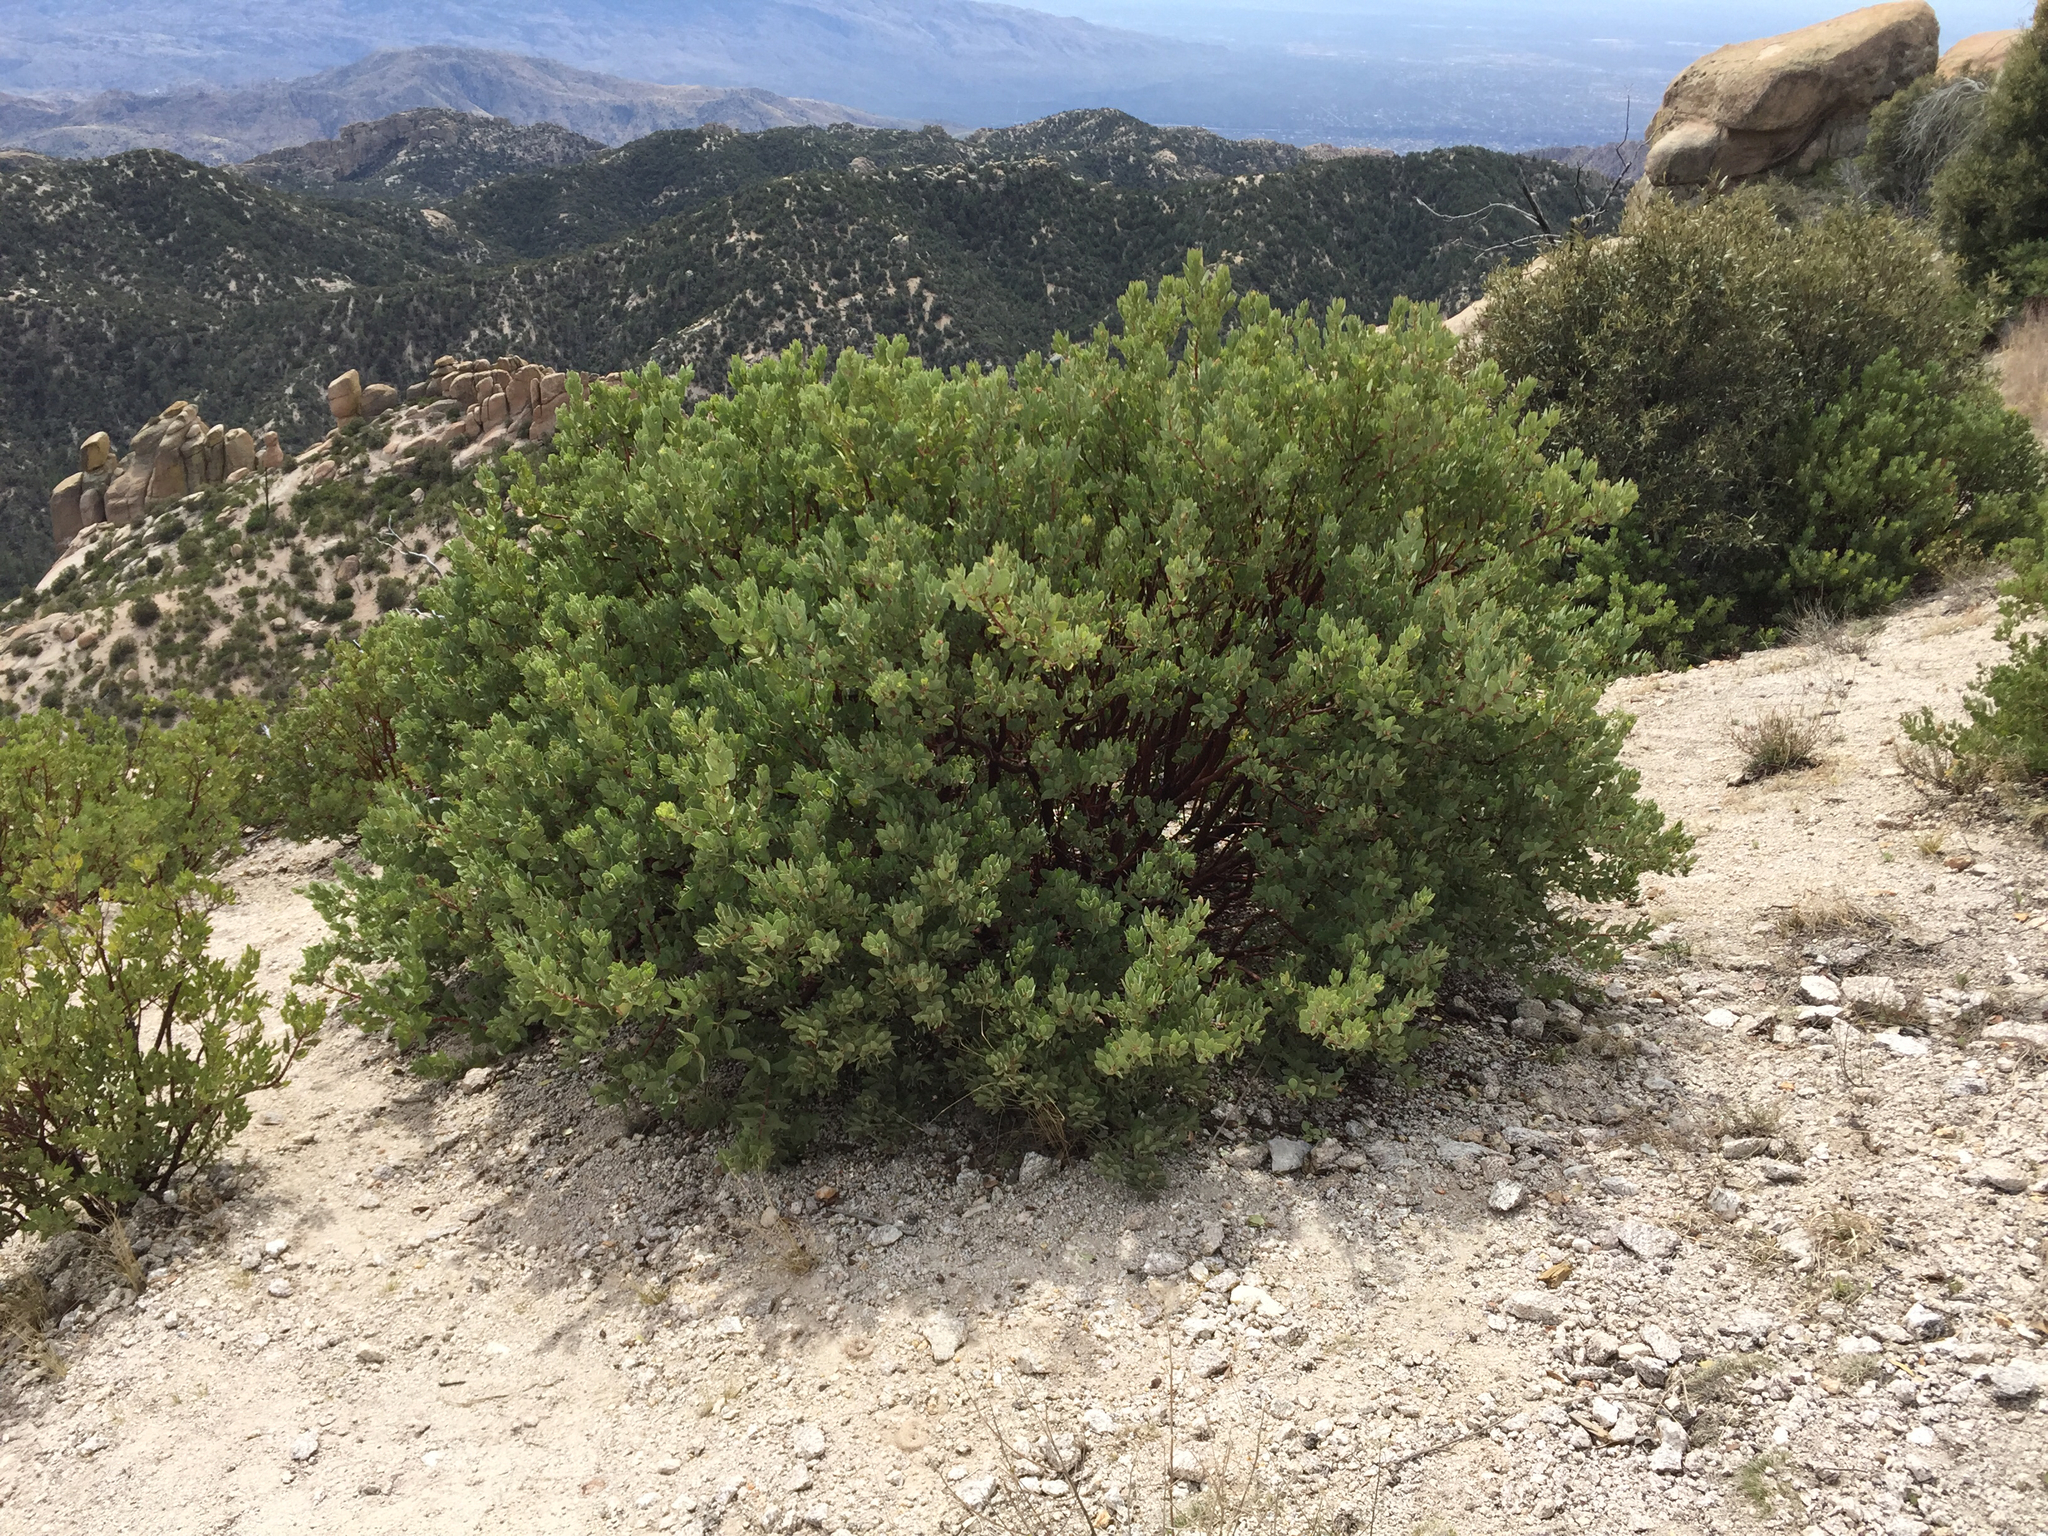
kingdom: Plantae
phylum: Tracheophyta
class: Magnoliopsida
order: Ericales
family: Ericaceae
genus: Arctostaphylos
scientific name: Arctostaphylos pringlei
